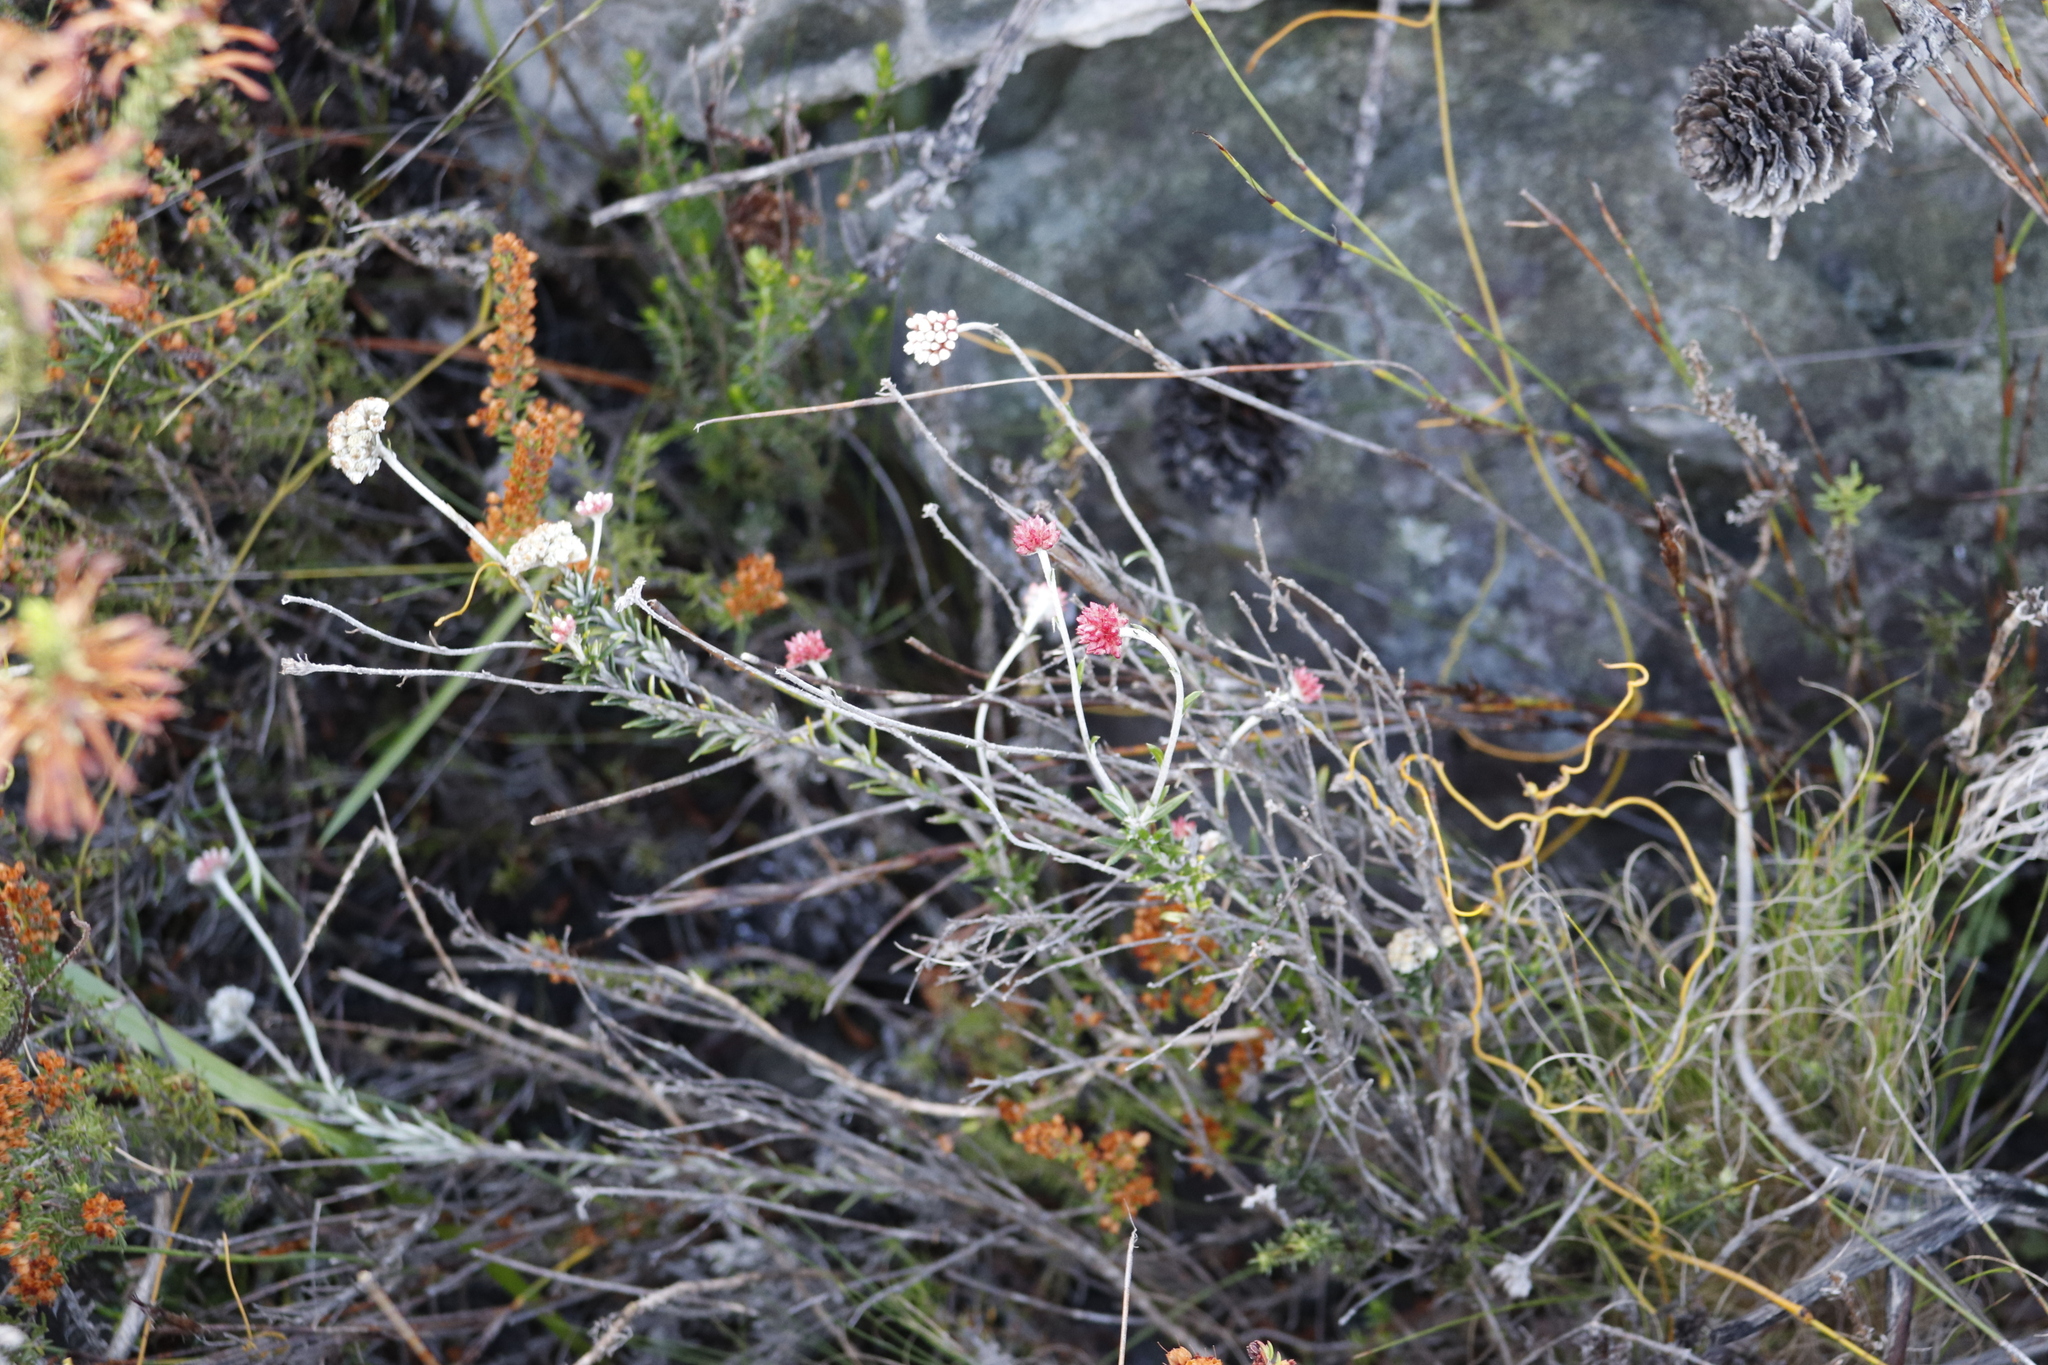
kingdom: Plantae
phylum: Tracheophyta
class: Magnoliopsida
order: Asterales
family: Asteraceae
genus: Anaxeton
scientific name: Anaxeton laeve
